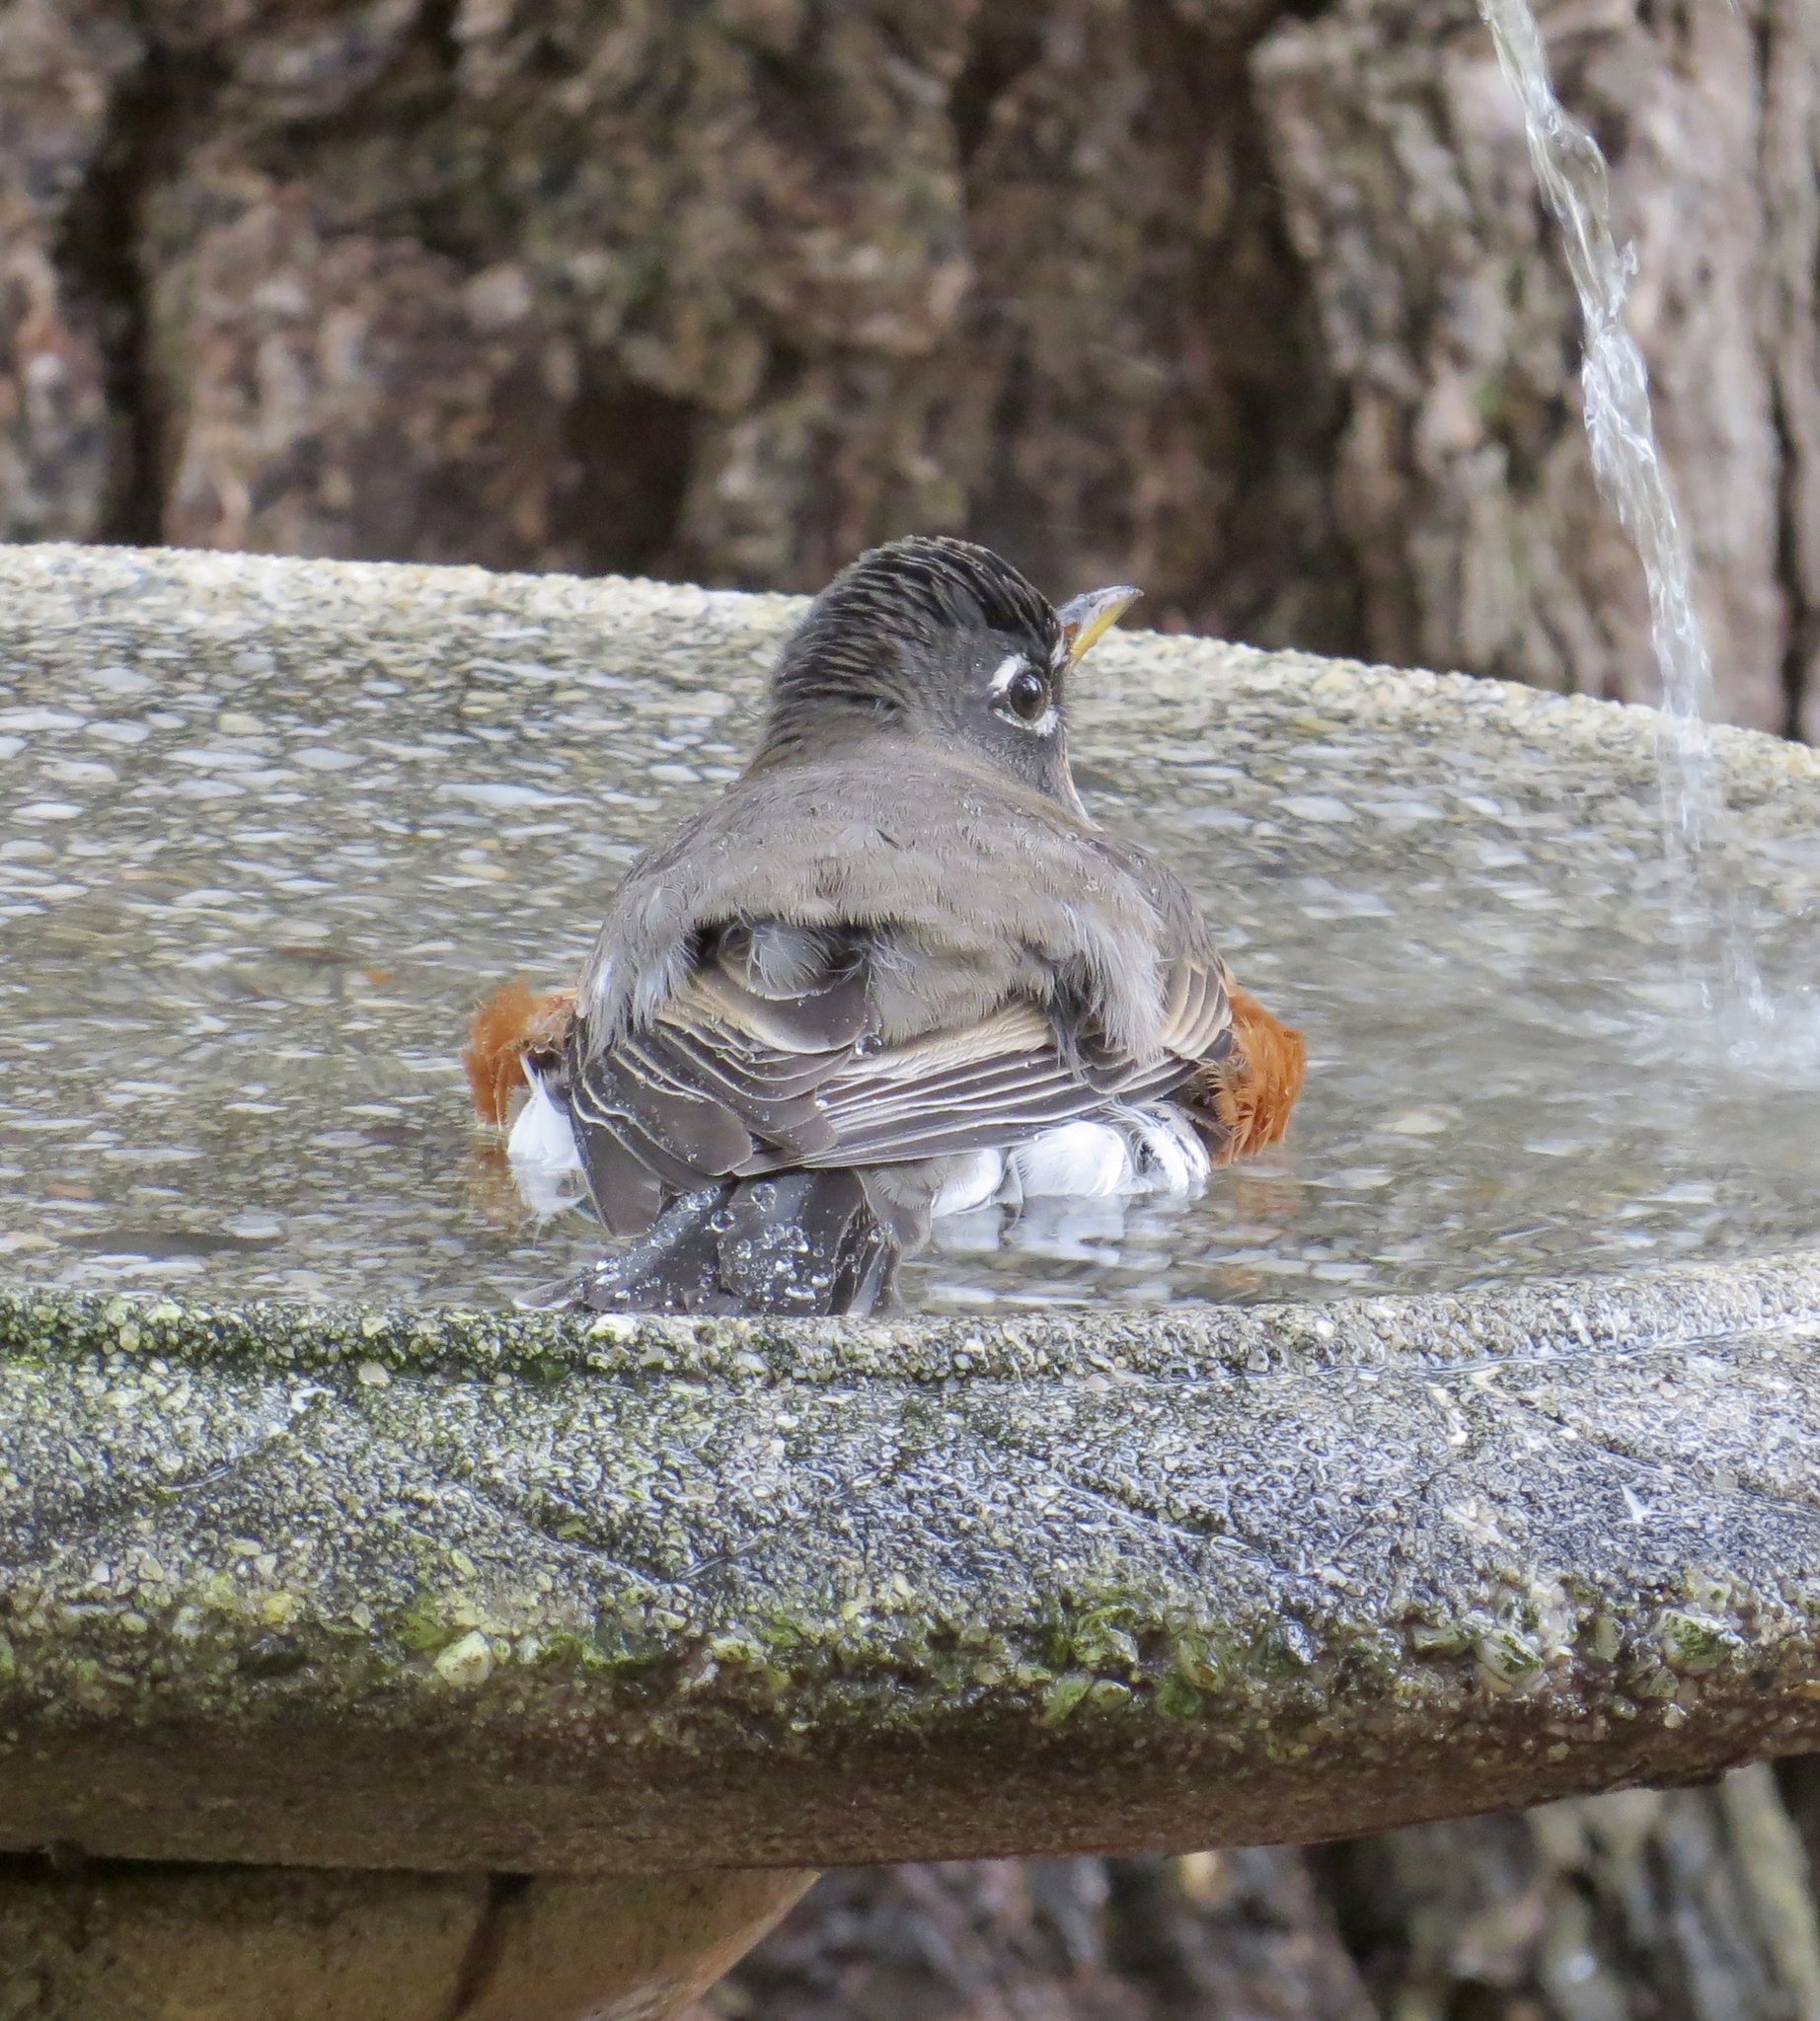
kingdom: Animalia
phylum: Chordata
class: Aves
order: Passeriformes
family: Turdidae
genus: Turdus
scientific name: Turdus migratorius
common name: American robin
